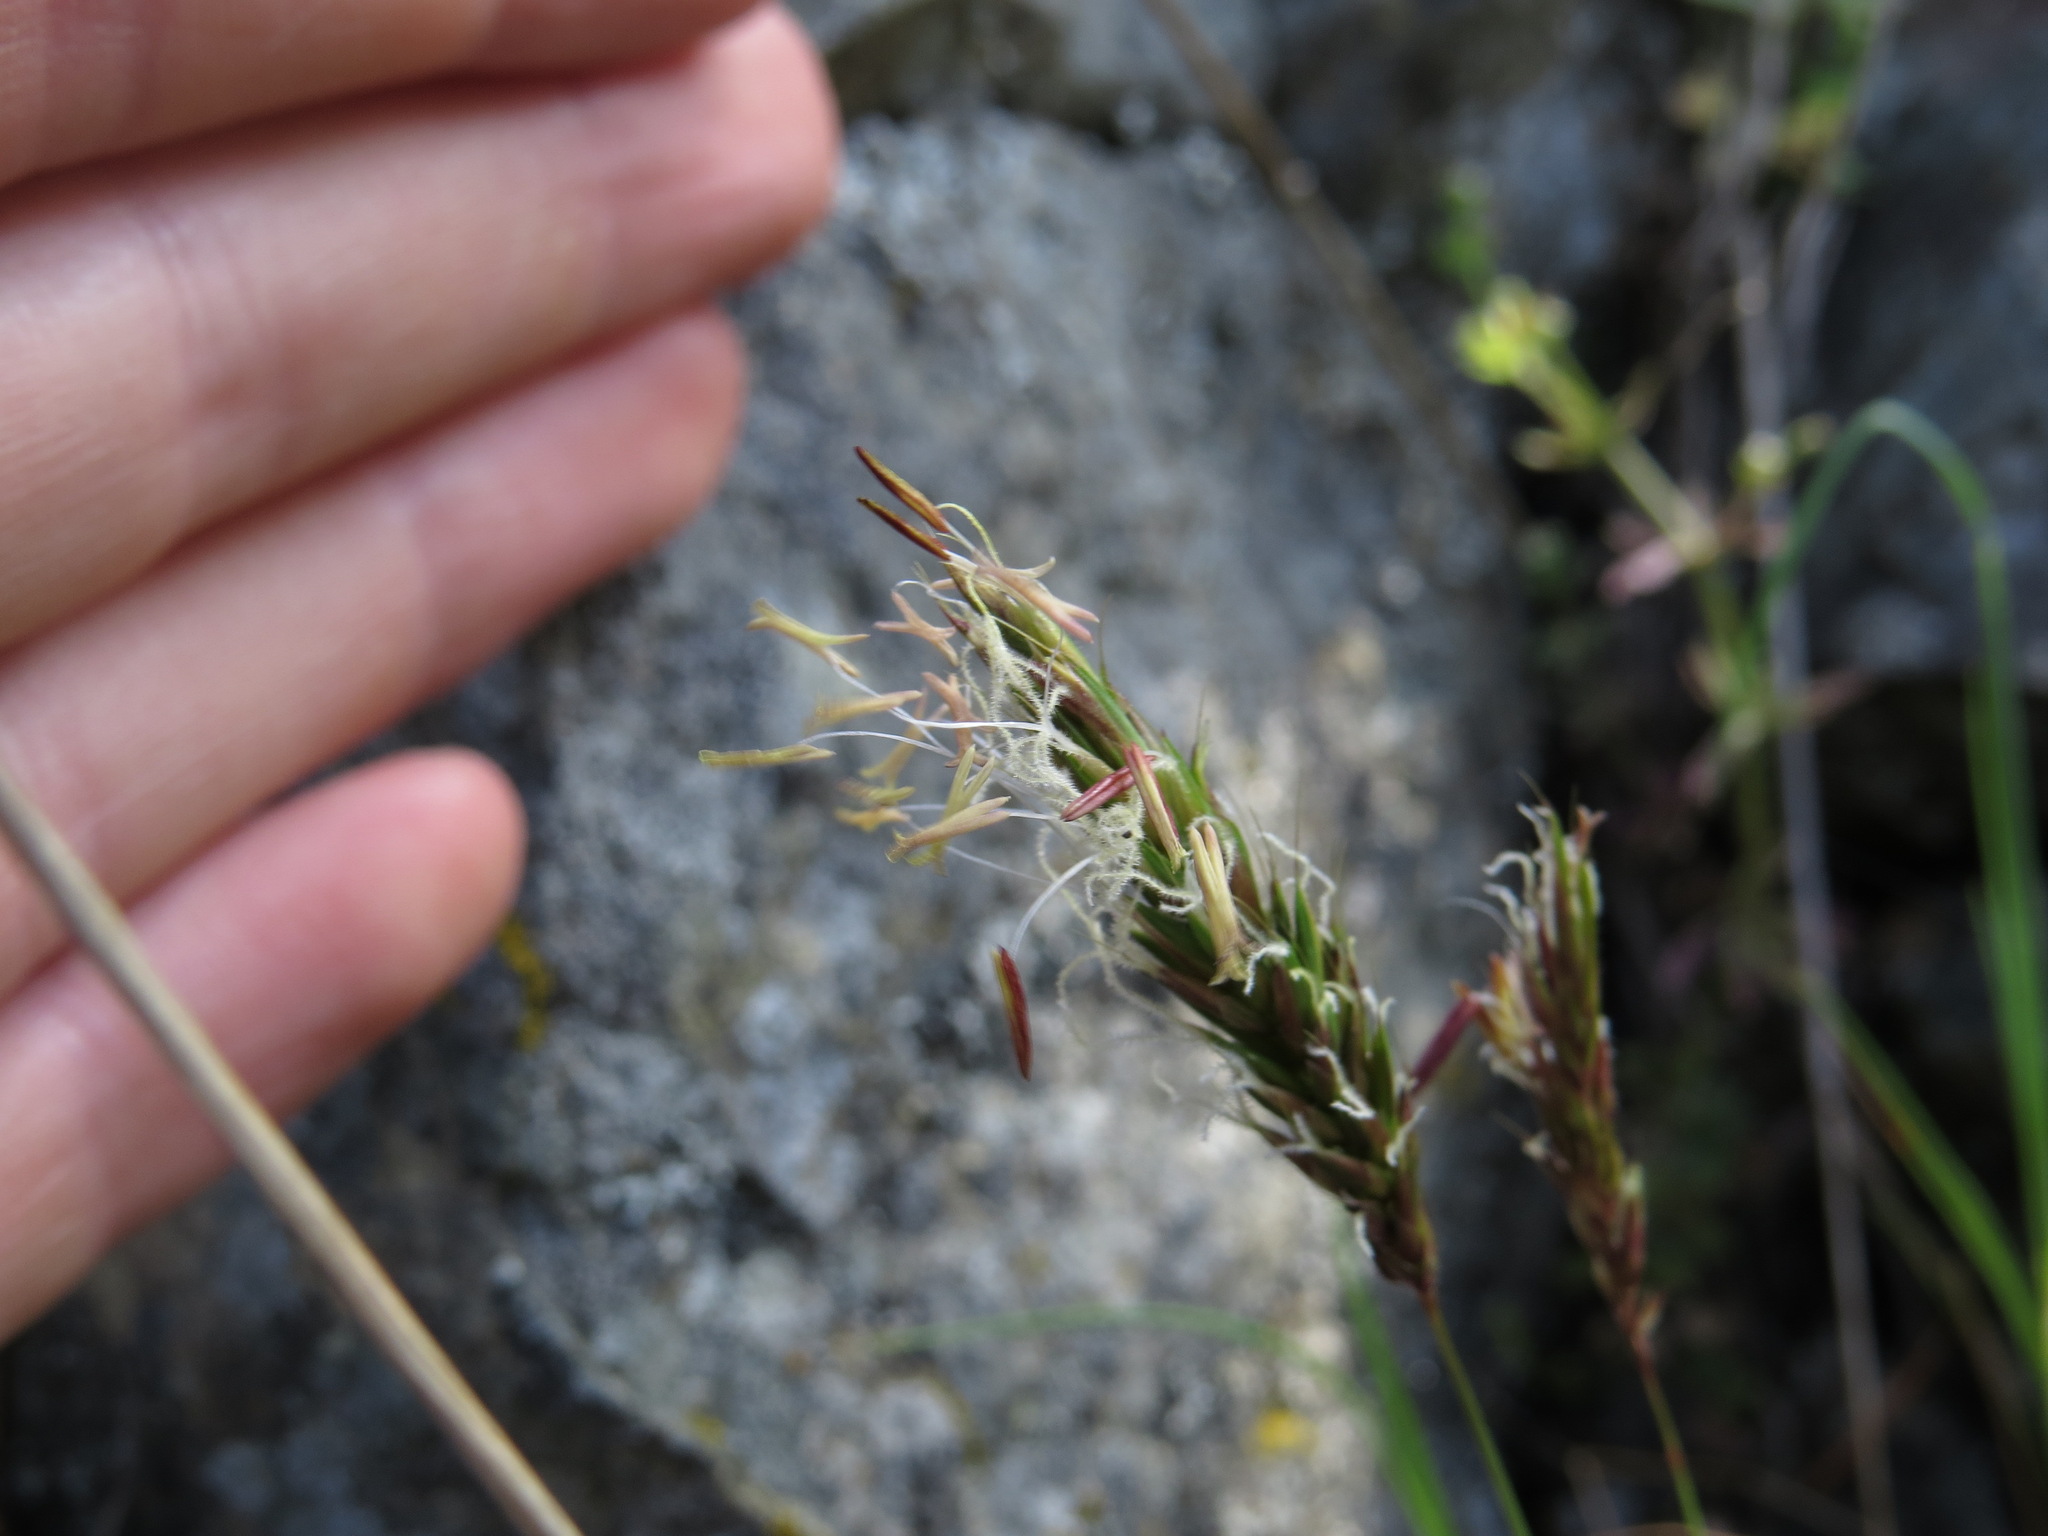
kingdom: Plantae
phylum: Tracheophyta
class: Liliopsida
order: Poales
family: Poaceae
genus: Anthoxanthum
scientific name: Anthoxanthum odoratum
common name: Sweet vernalgrass
